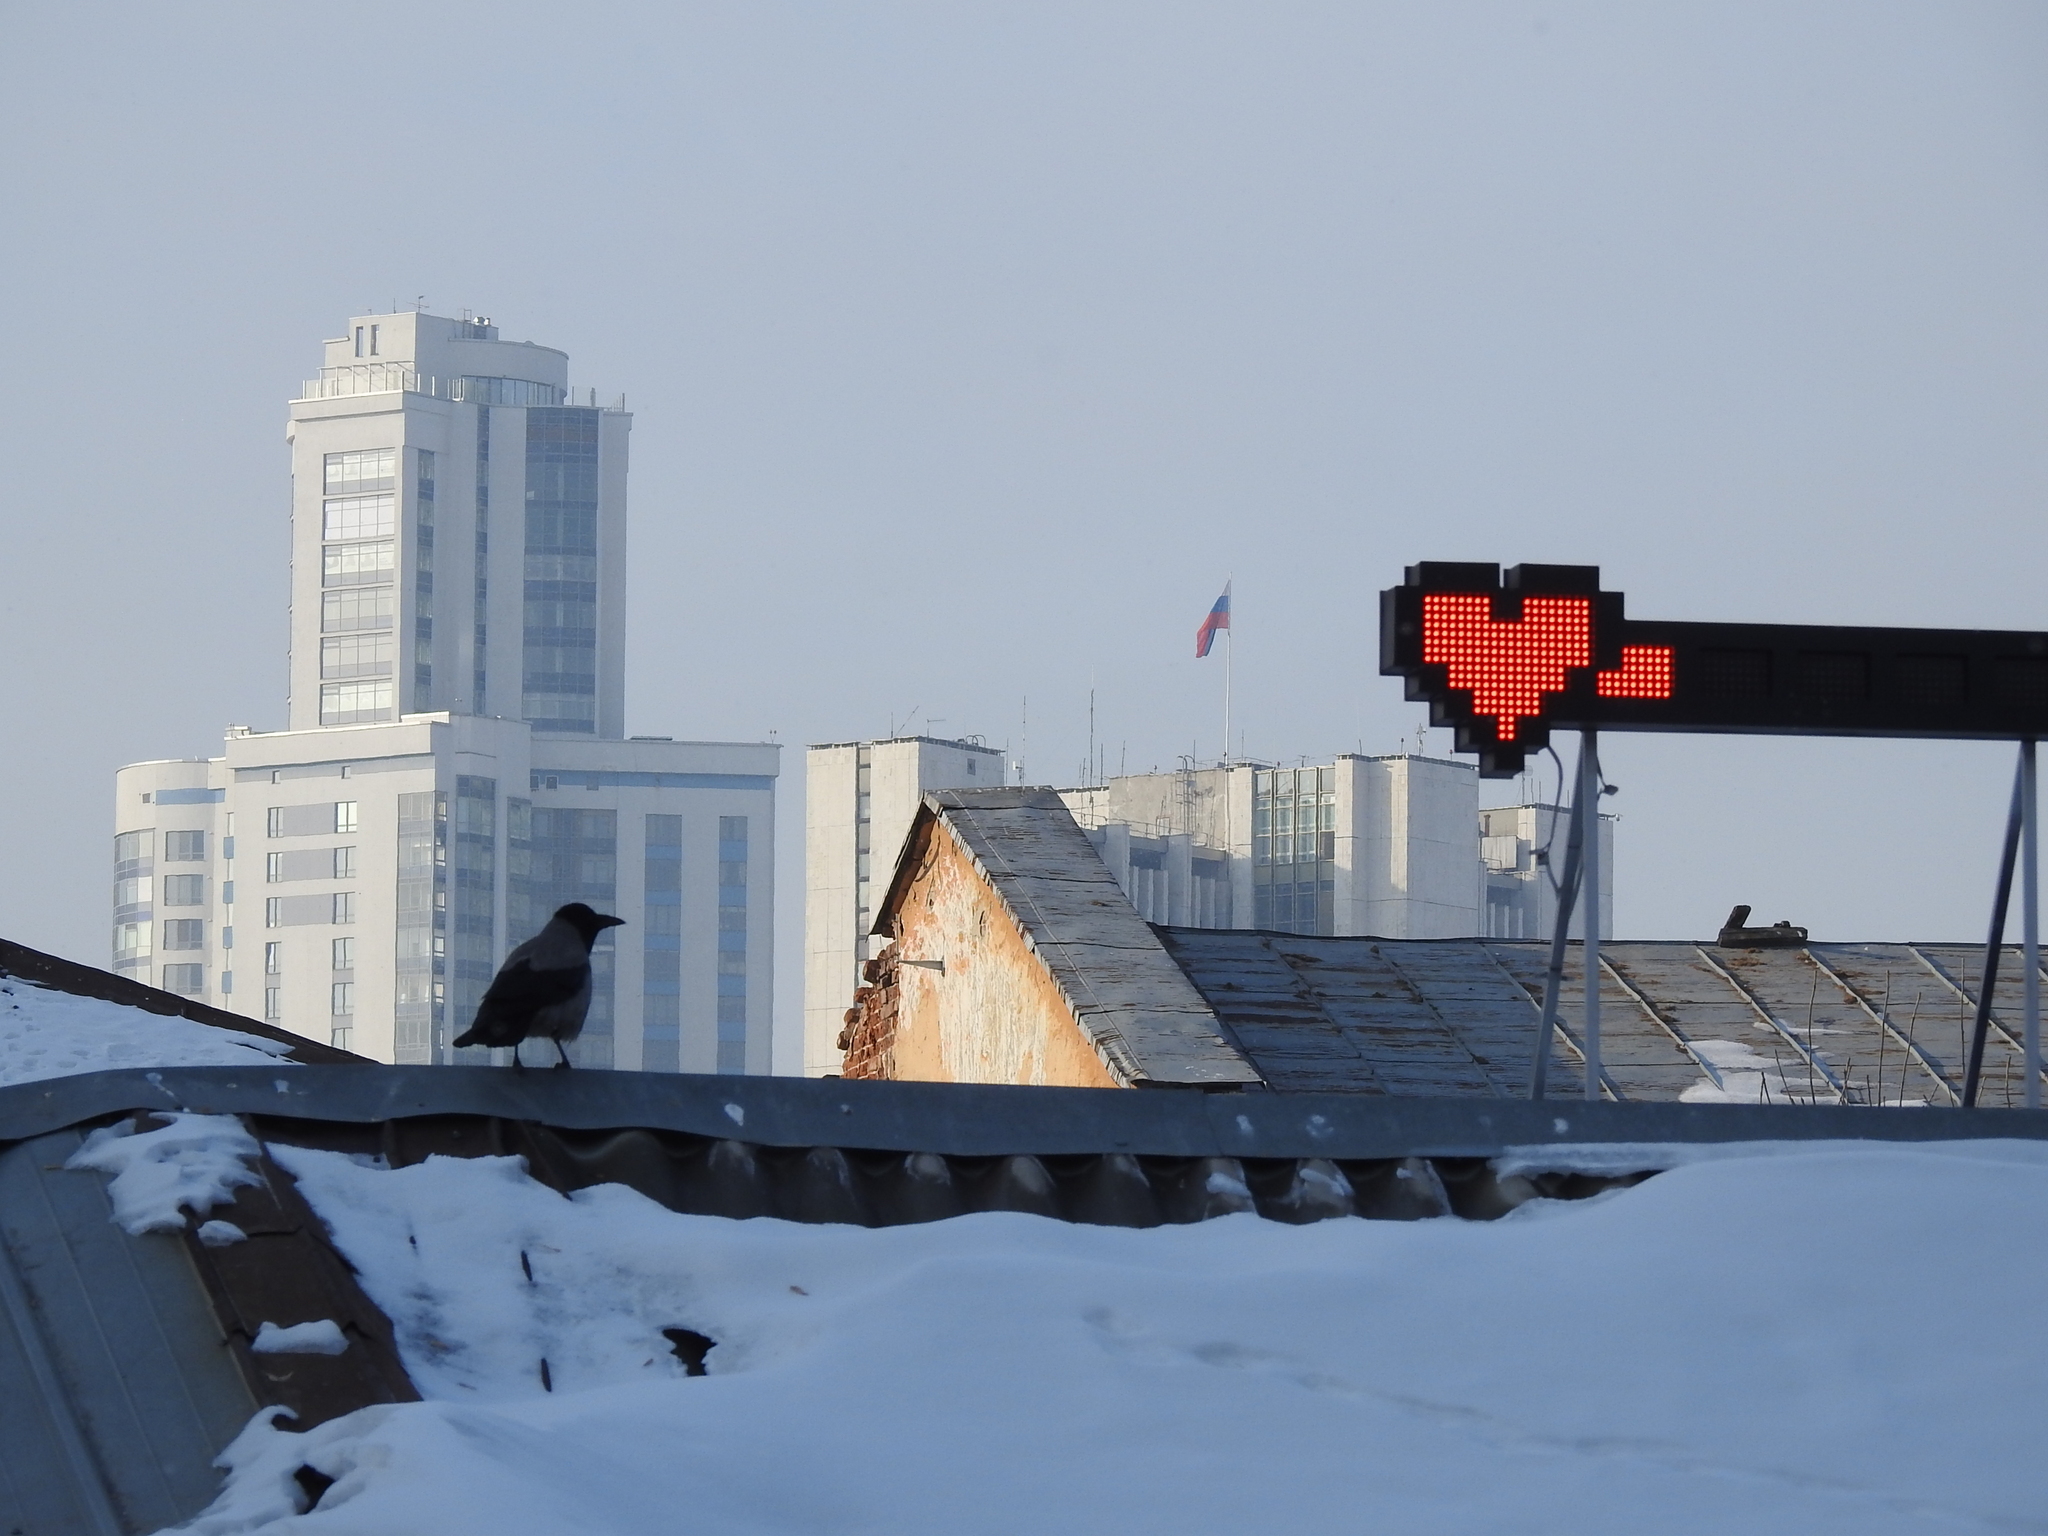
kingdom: Animalia
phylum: Chordata
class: Aves
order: Passeriformes
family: Corvidae
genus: Corvus
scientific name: Corvus cornix
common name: Hooded crow
